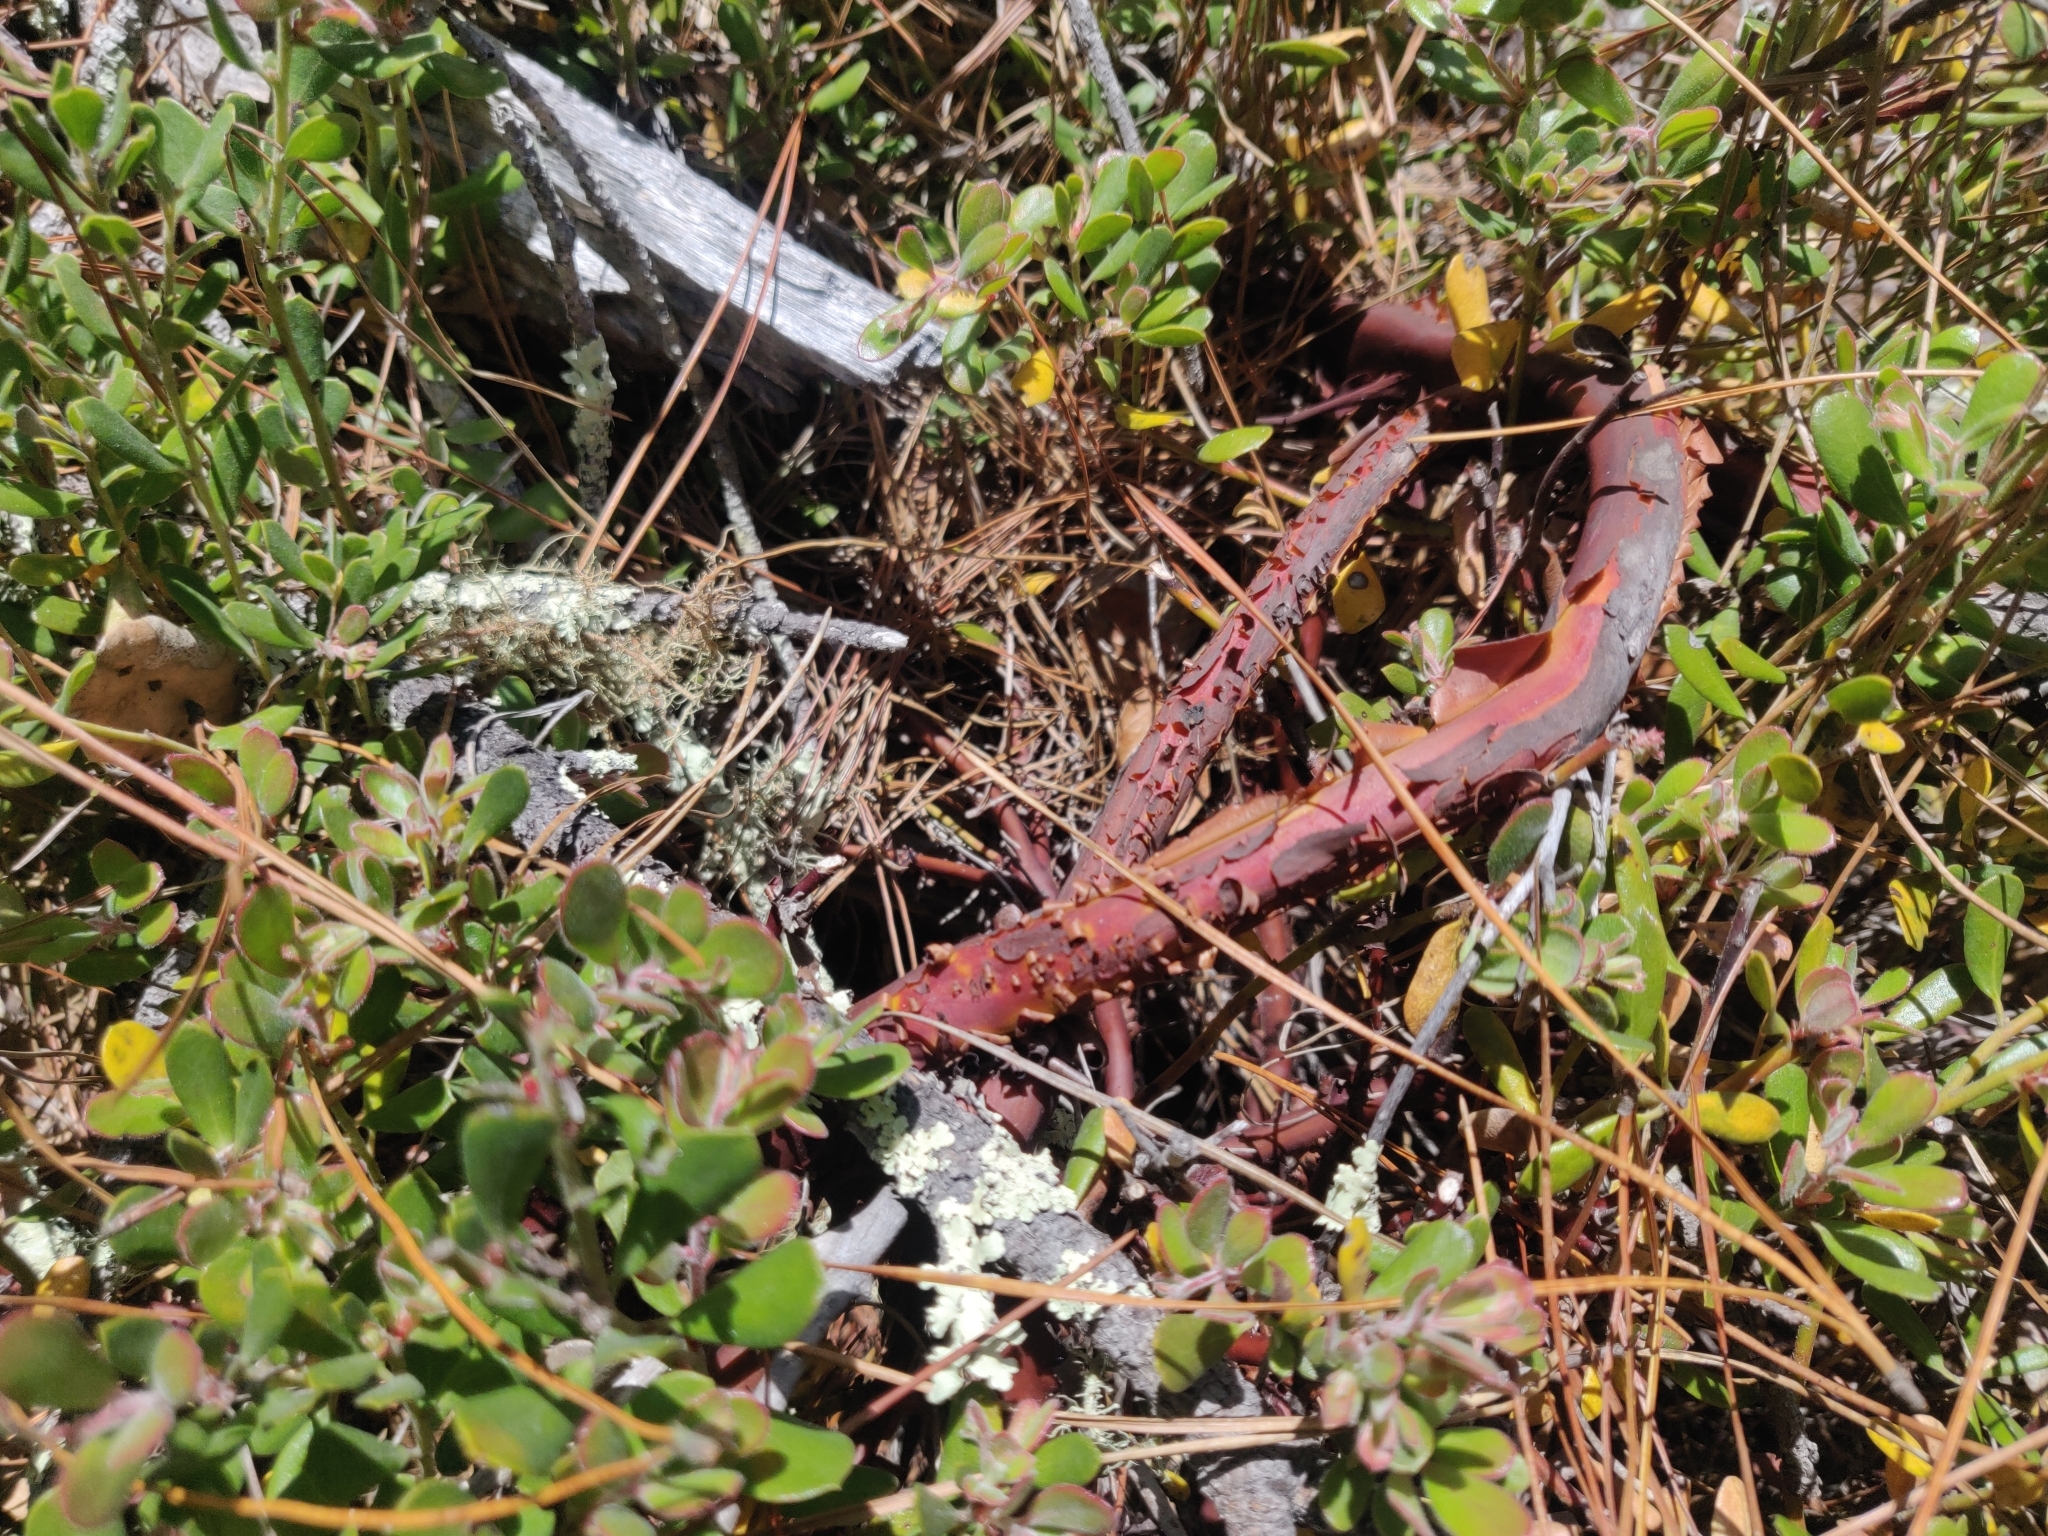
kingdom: Plantae
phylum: Tracheophyta
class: Magnoliopsida
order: Ericales
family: Ericaceae
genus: Arctostaphylos
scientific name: Arctostaphylos pumila
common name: Sandmat manzanita
